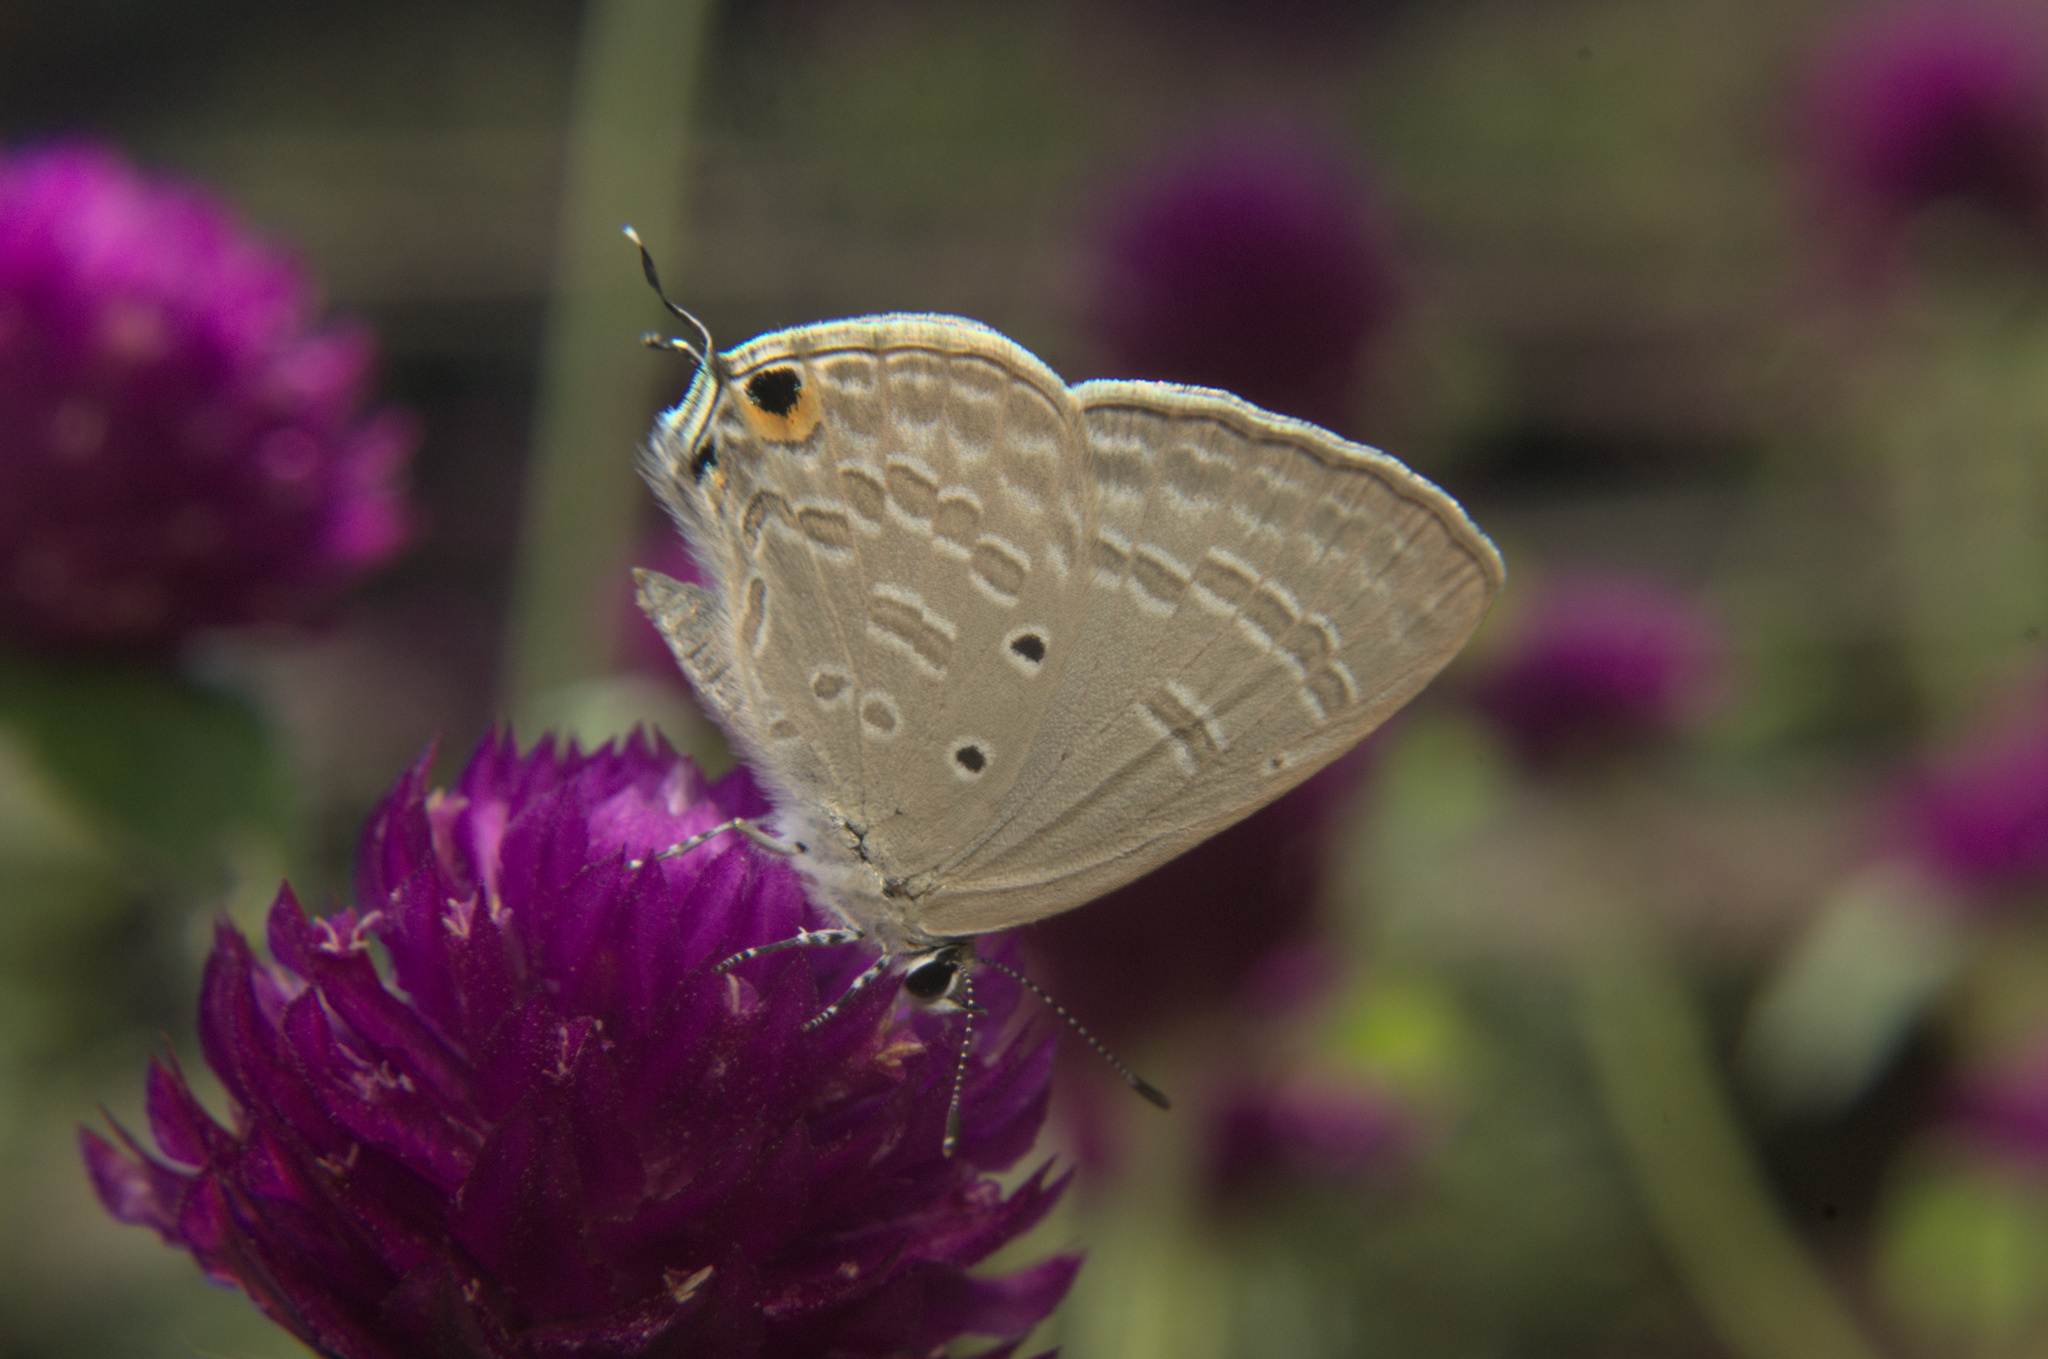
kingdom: Animalia
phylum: Arthropoda
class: Insecta
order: Lepidoptera
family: Lycaenidae
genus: Catochrysops
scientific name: Catochrysops strabo
